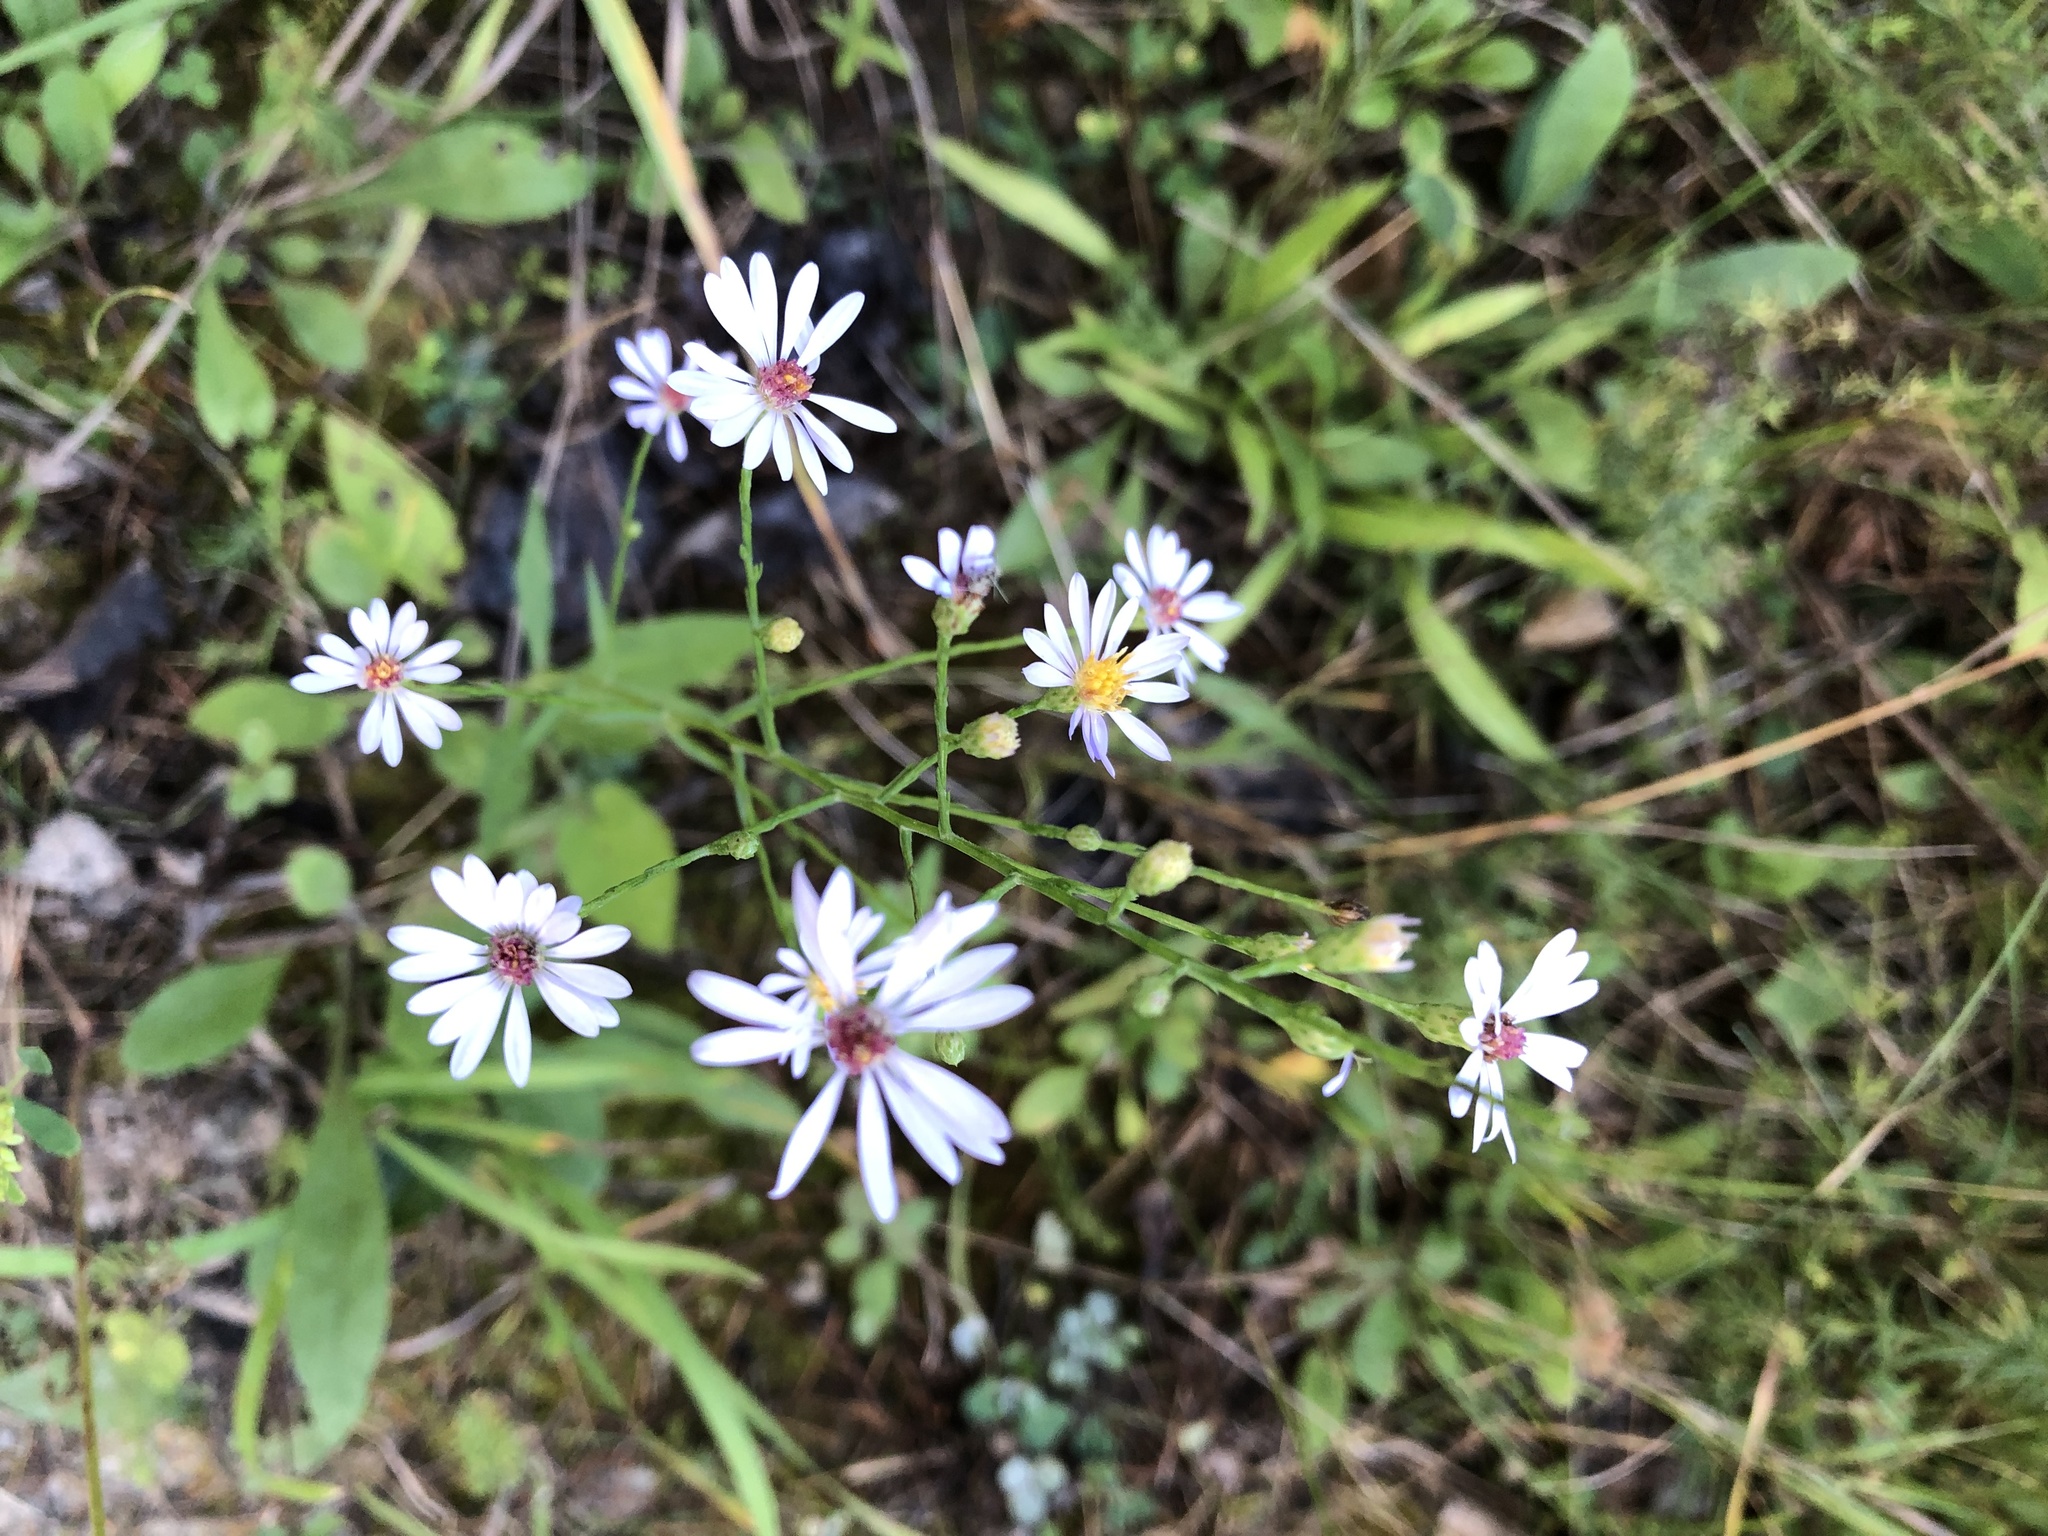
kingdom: Plantae
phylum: Tracheophyta
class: Magnoliopsida
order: Asterales
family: Asteraceae
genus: Symphyotrichum
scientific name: Symphyotrichum oolentangiense
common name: Azure aster
